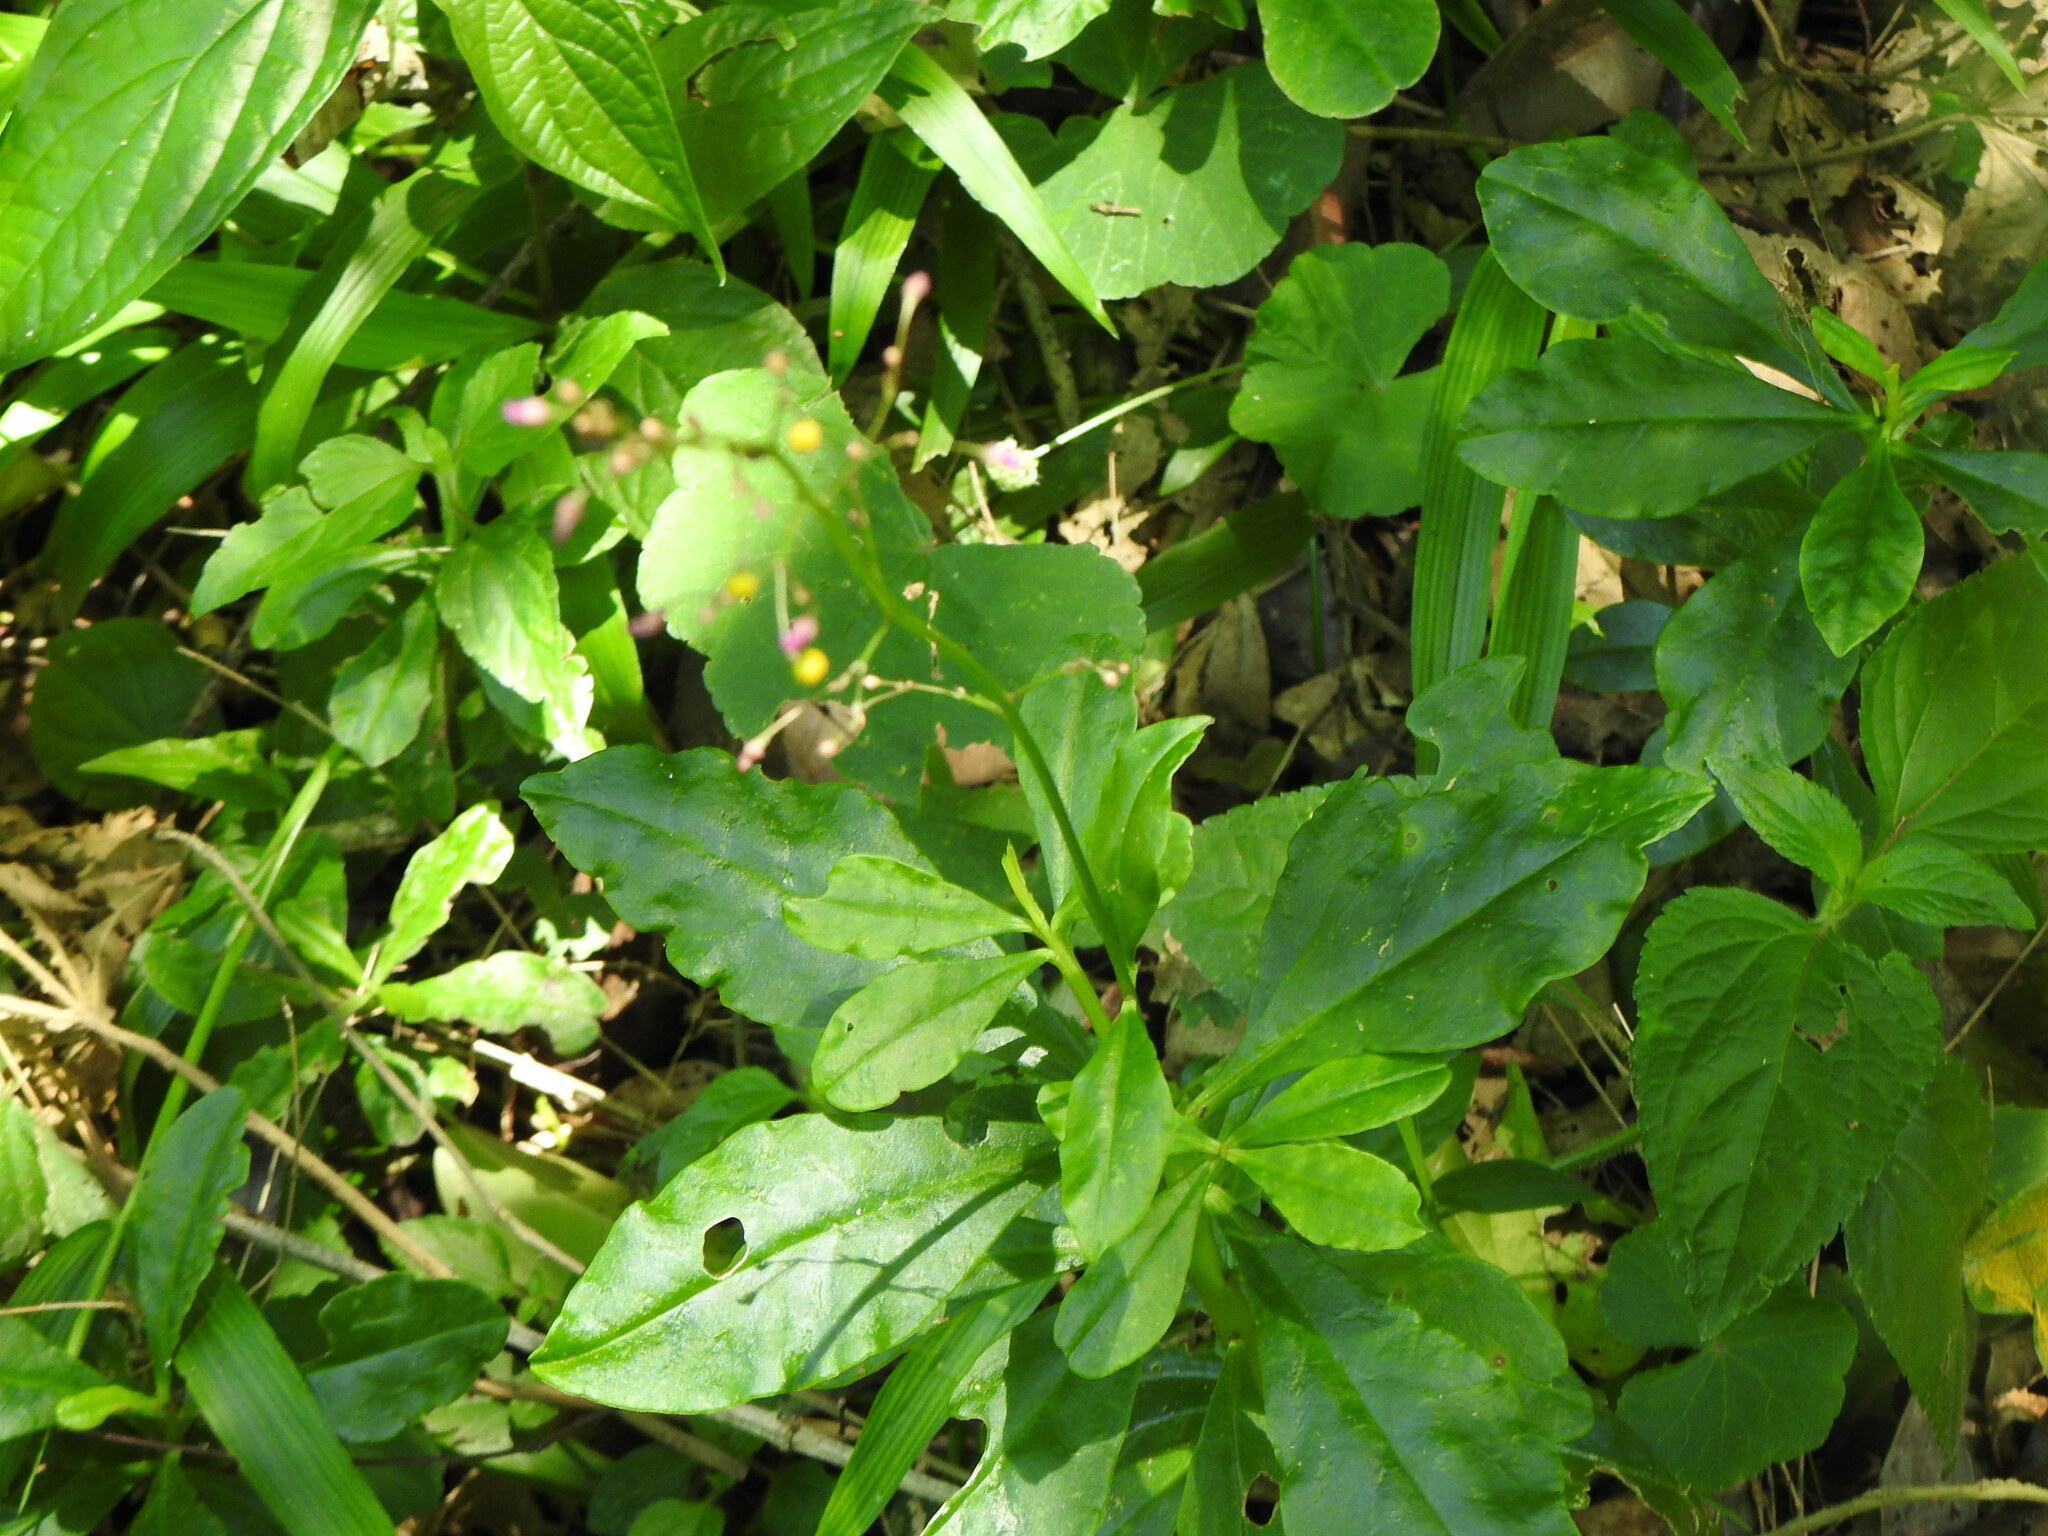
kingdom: Plantae
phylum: Tracheophyta
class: Magnoliopsida
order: Caryophyllales
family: Talinaceae
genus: Talinum
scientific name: Talinum paniculatum
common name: Jewels of opar
